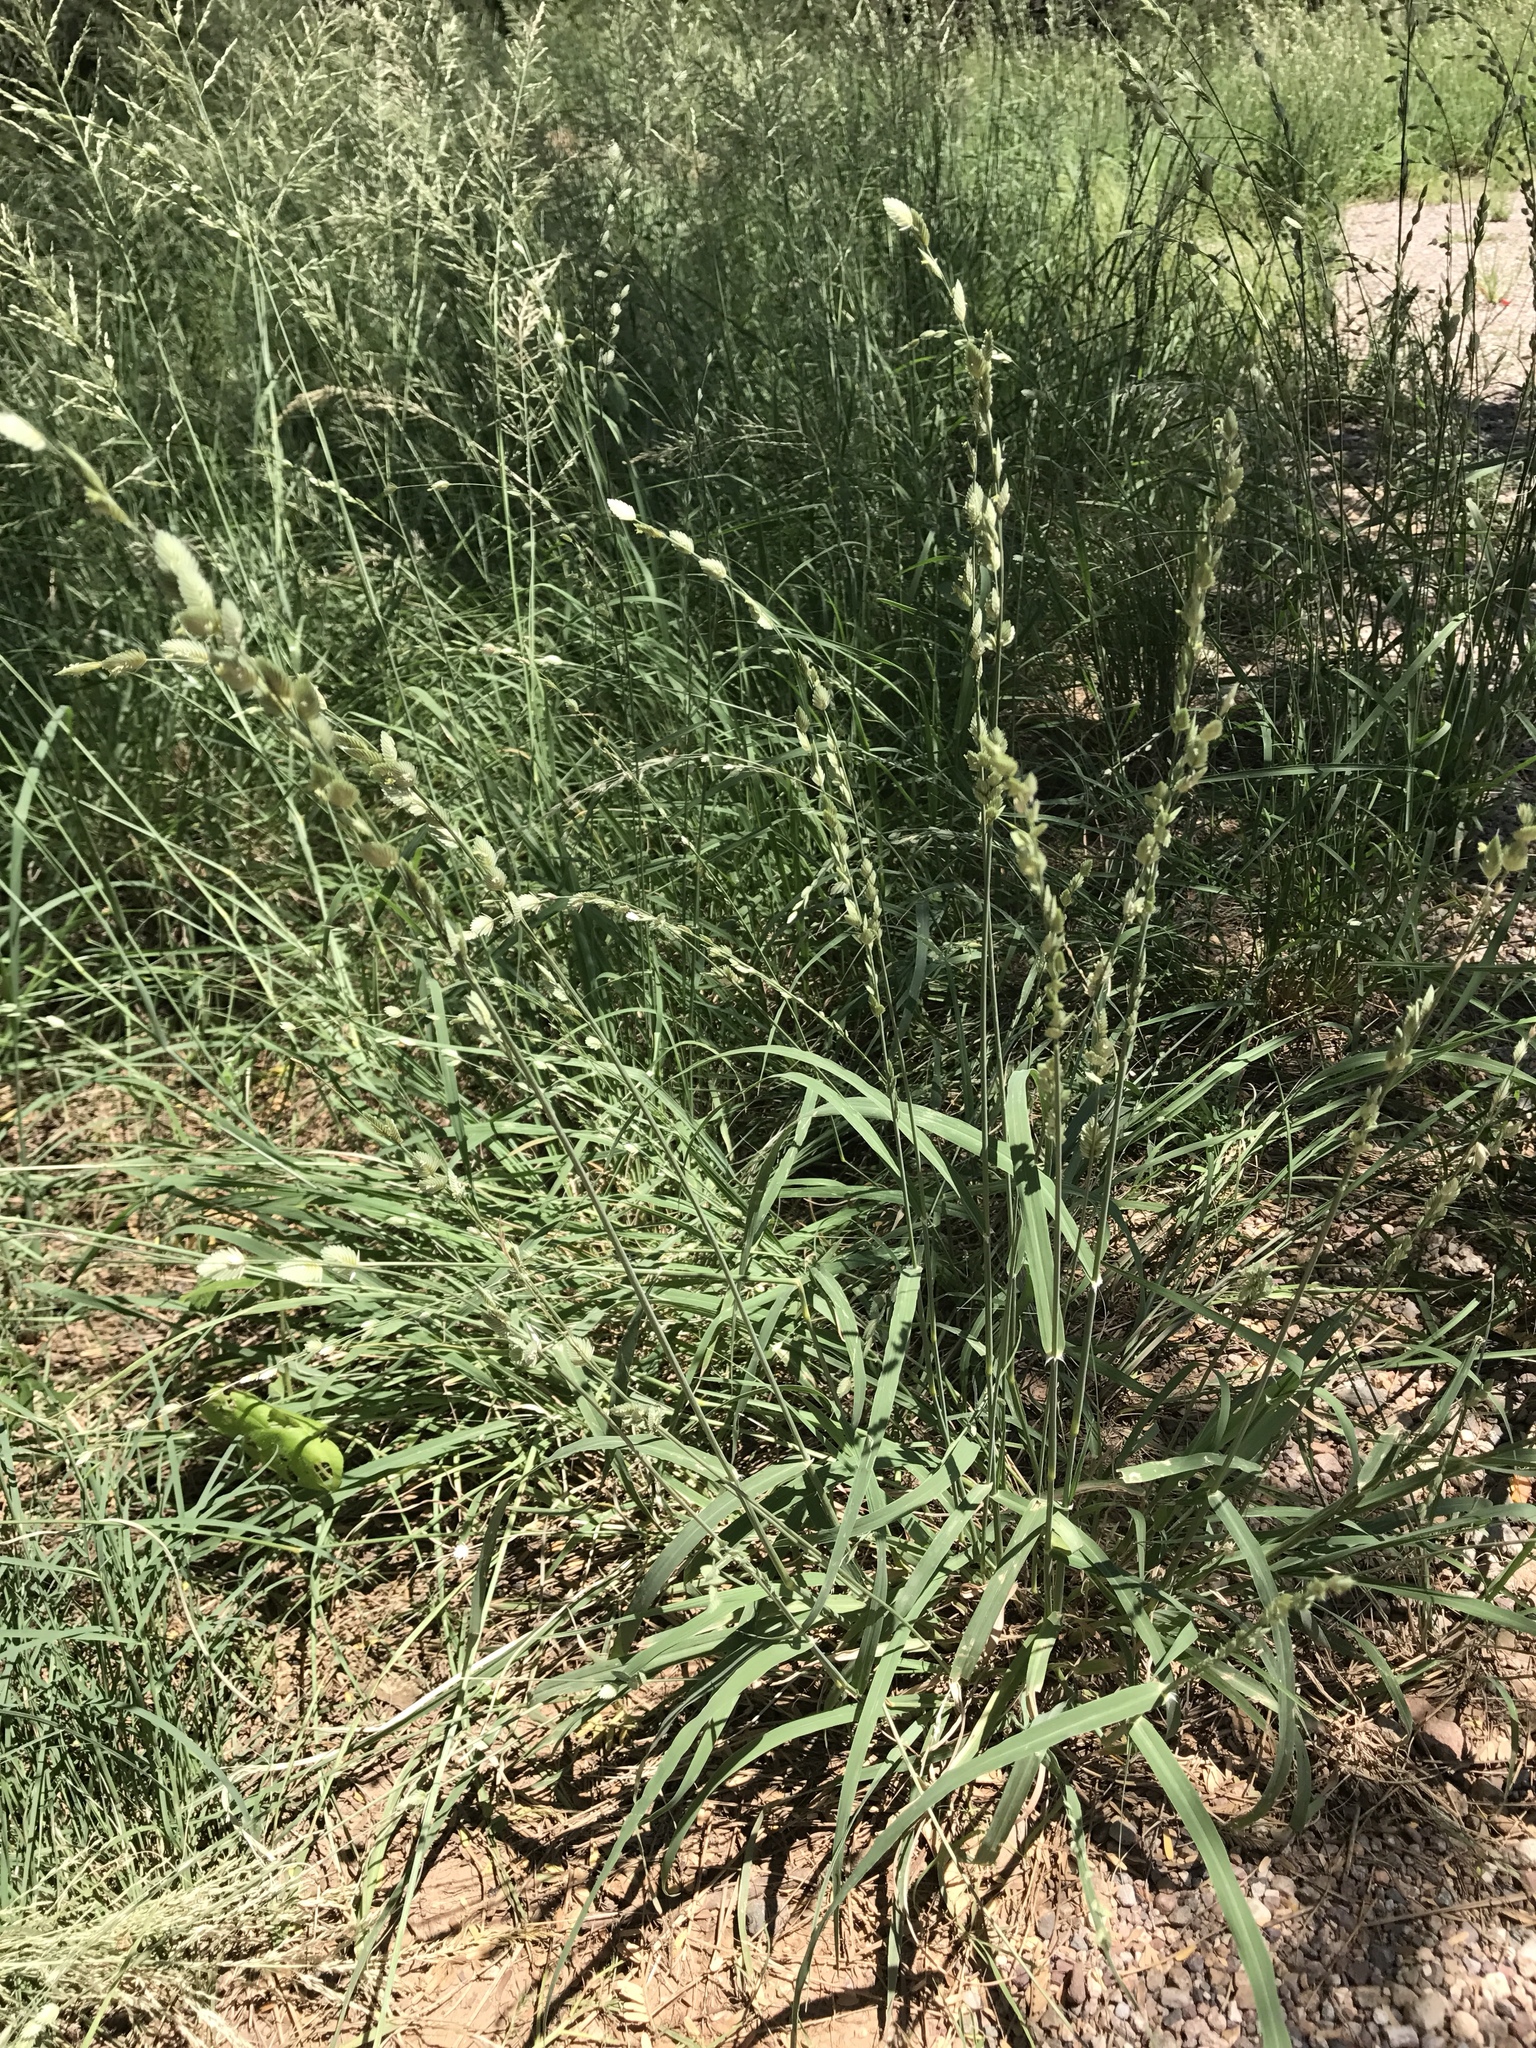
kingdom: Plantae
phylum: Tracheophyta
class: Liliopsida
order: Poales
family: Poaceae
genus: Eragrostis
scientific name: Eragrostis superba
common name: Wilman lovegrass
